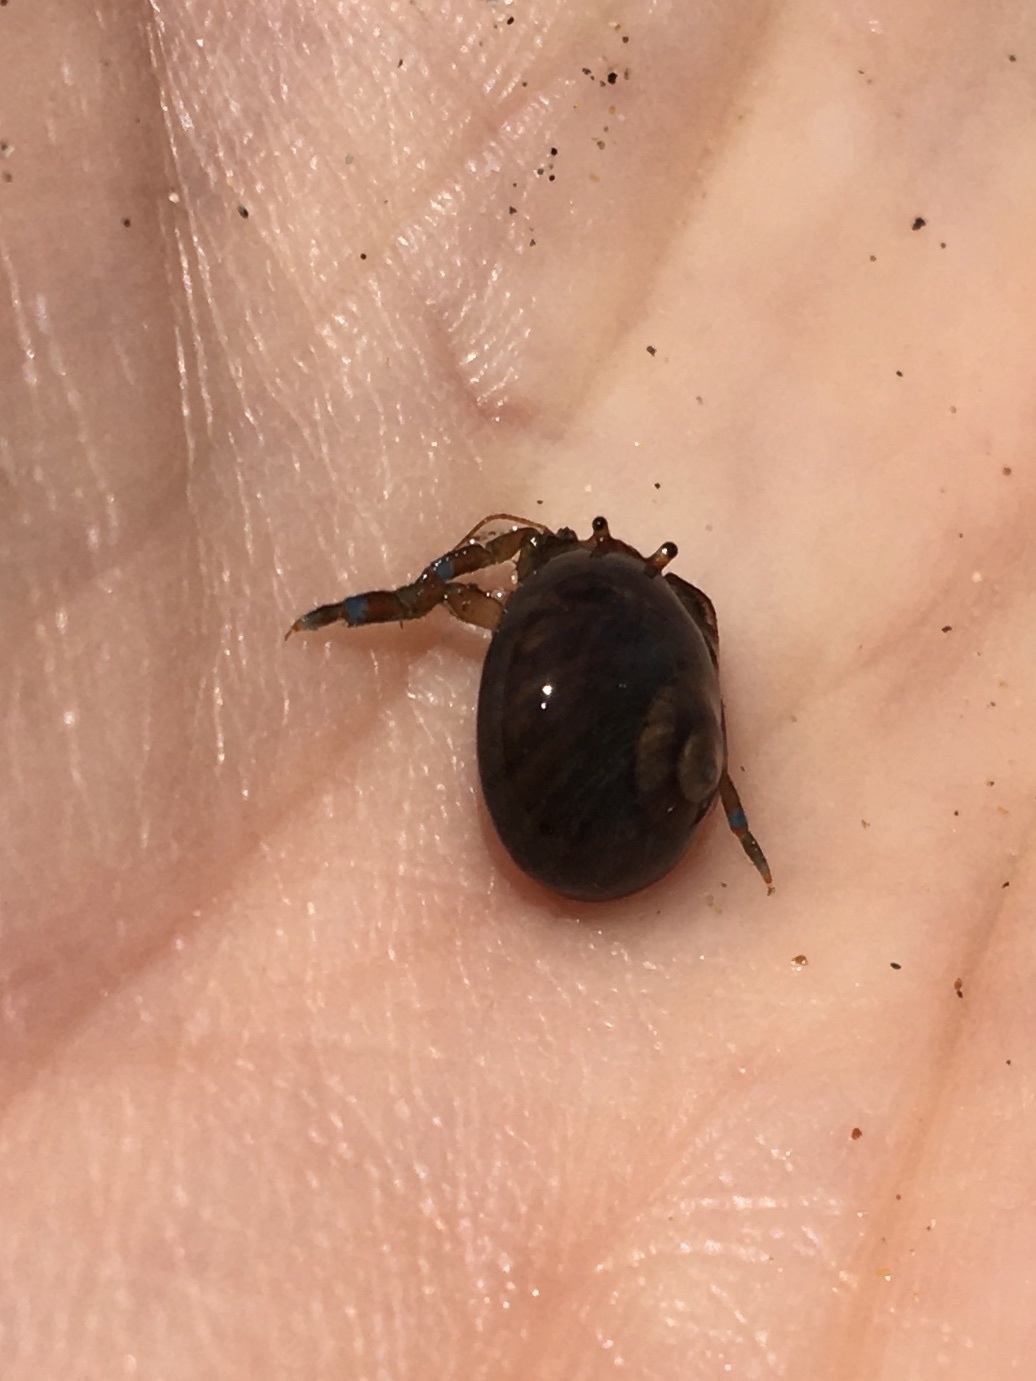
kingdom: Animalia
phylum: Arthropoda
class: Malacostraca
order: Decapoda
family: Paguridae
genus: Pagurus
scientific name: Pagurus samuelis
